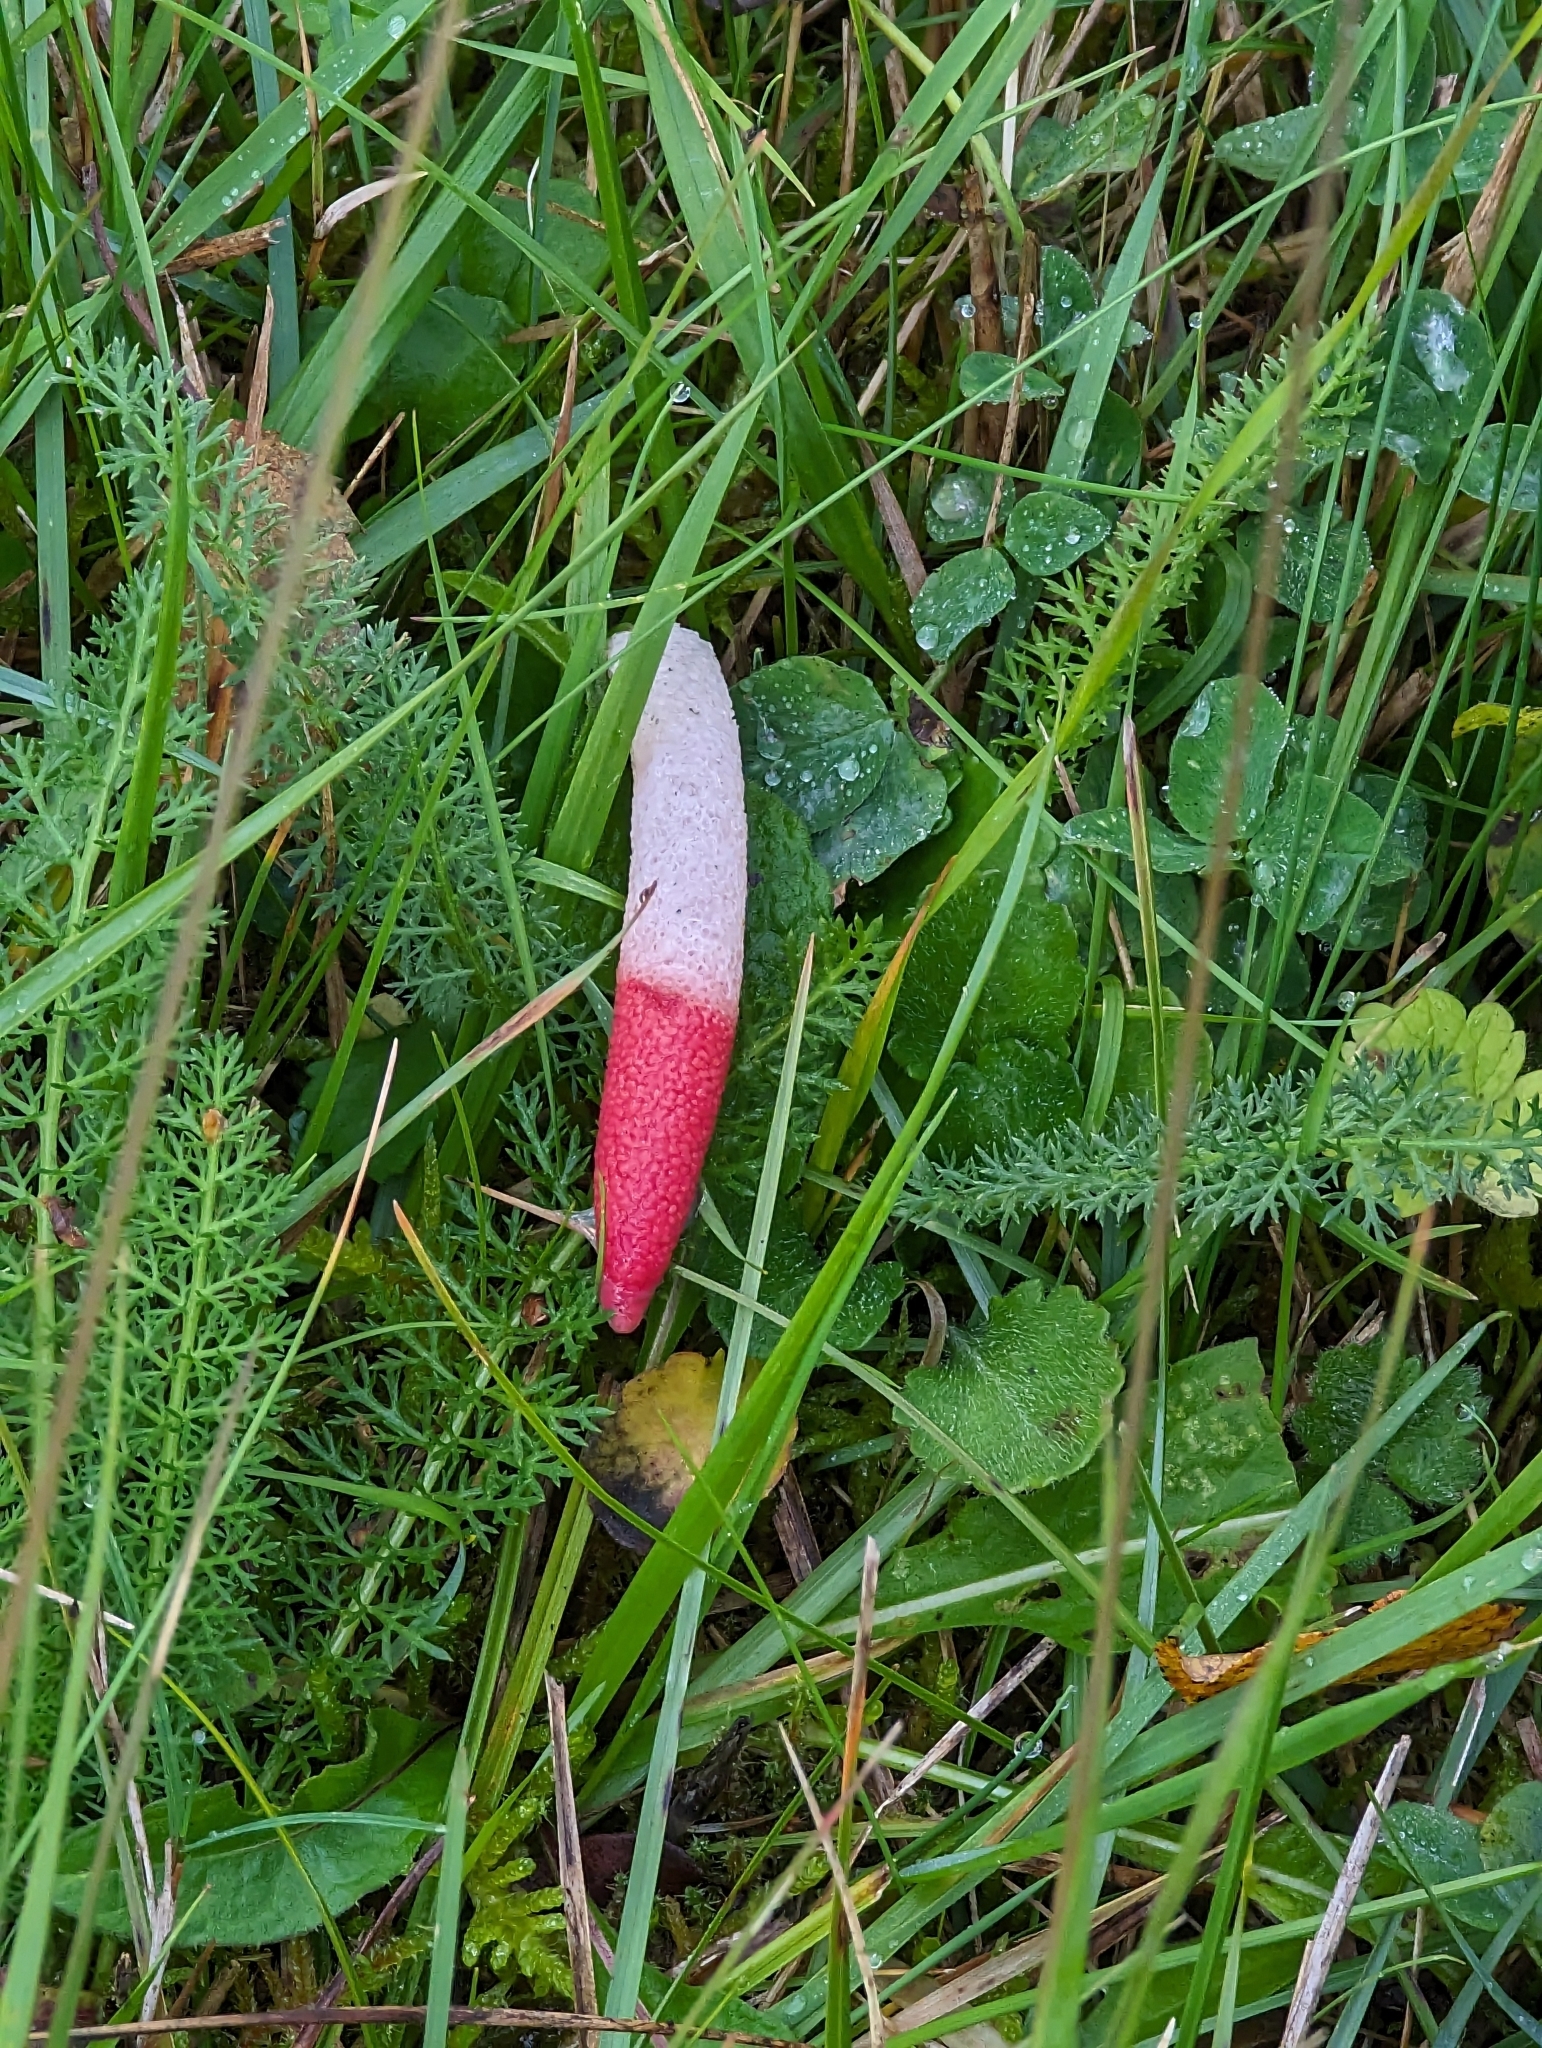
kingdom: Fungi
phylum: Basidiomycota
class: Agaricomycetes
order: Phallales
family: Phallaceae
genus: Mutinus
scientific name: Mutinus ravenelii
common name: Red stinkhorn
